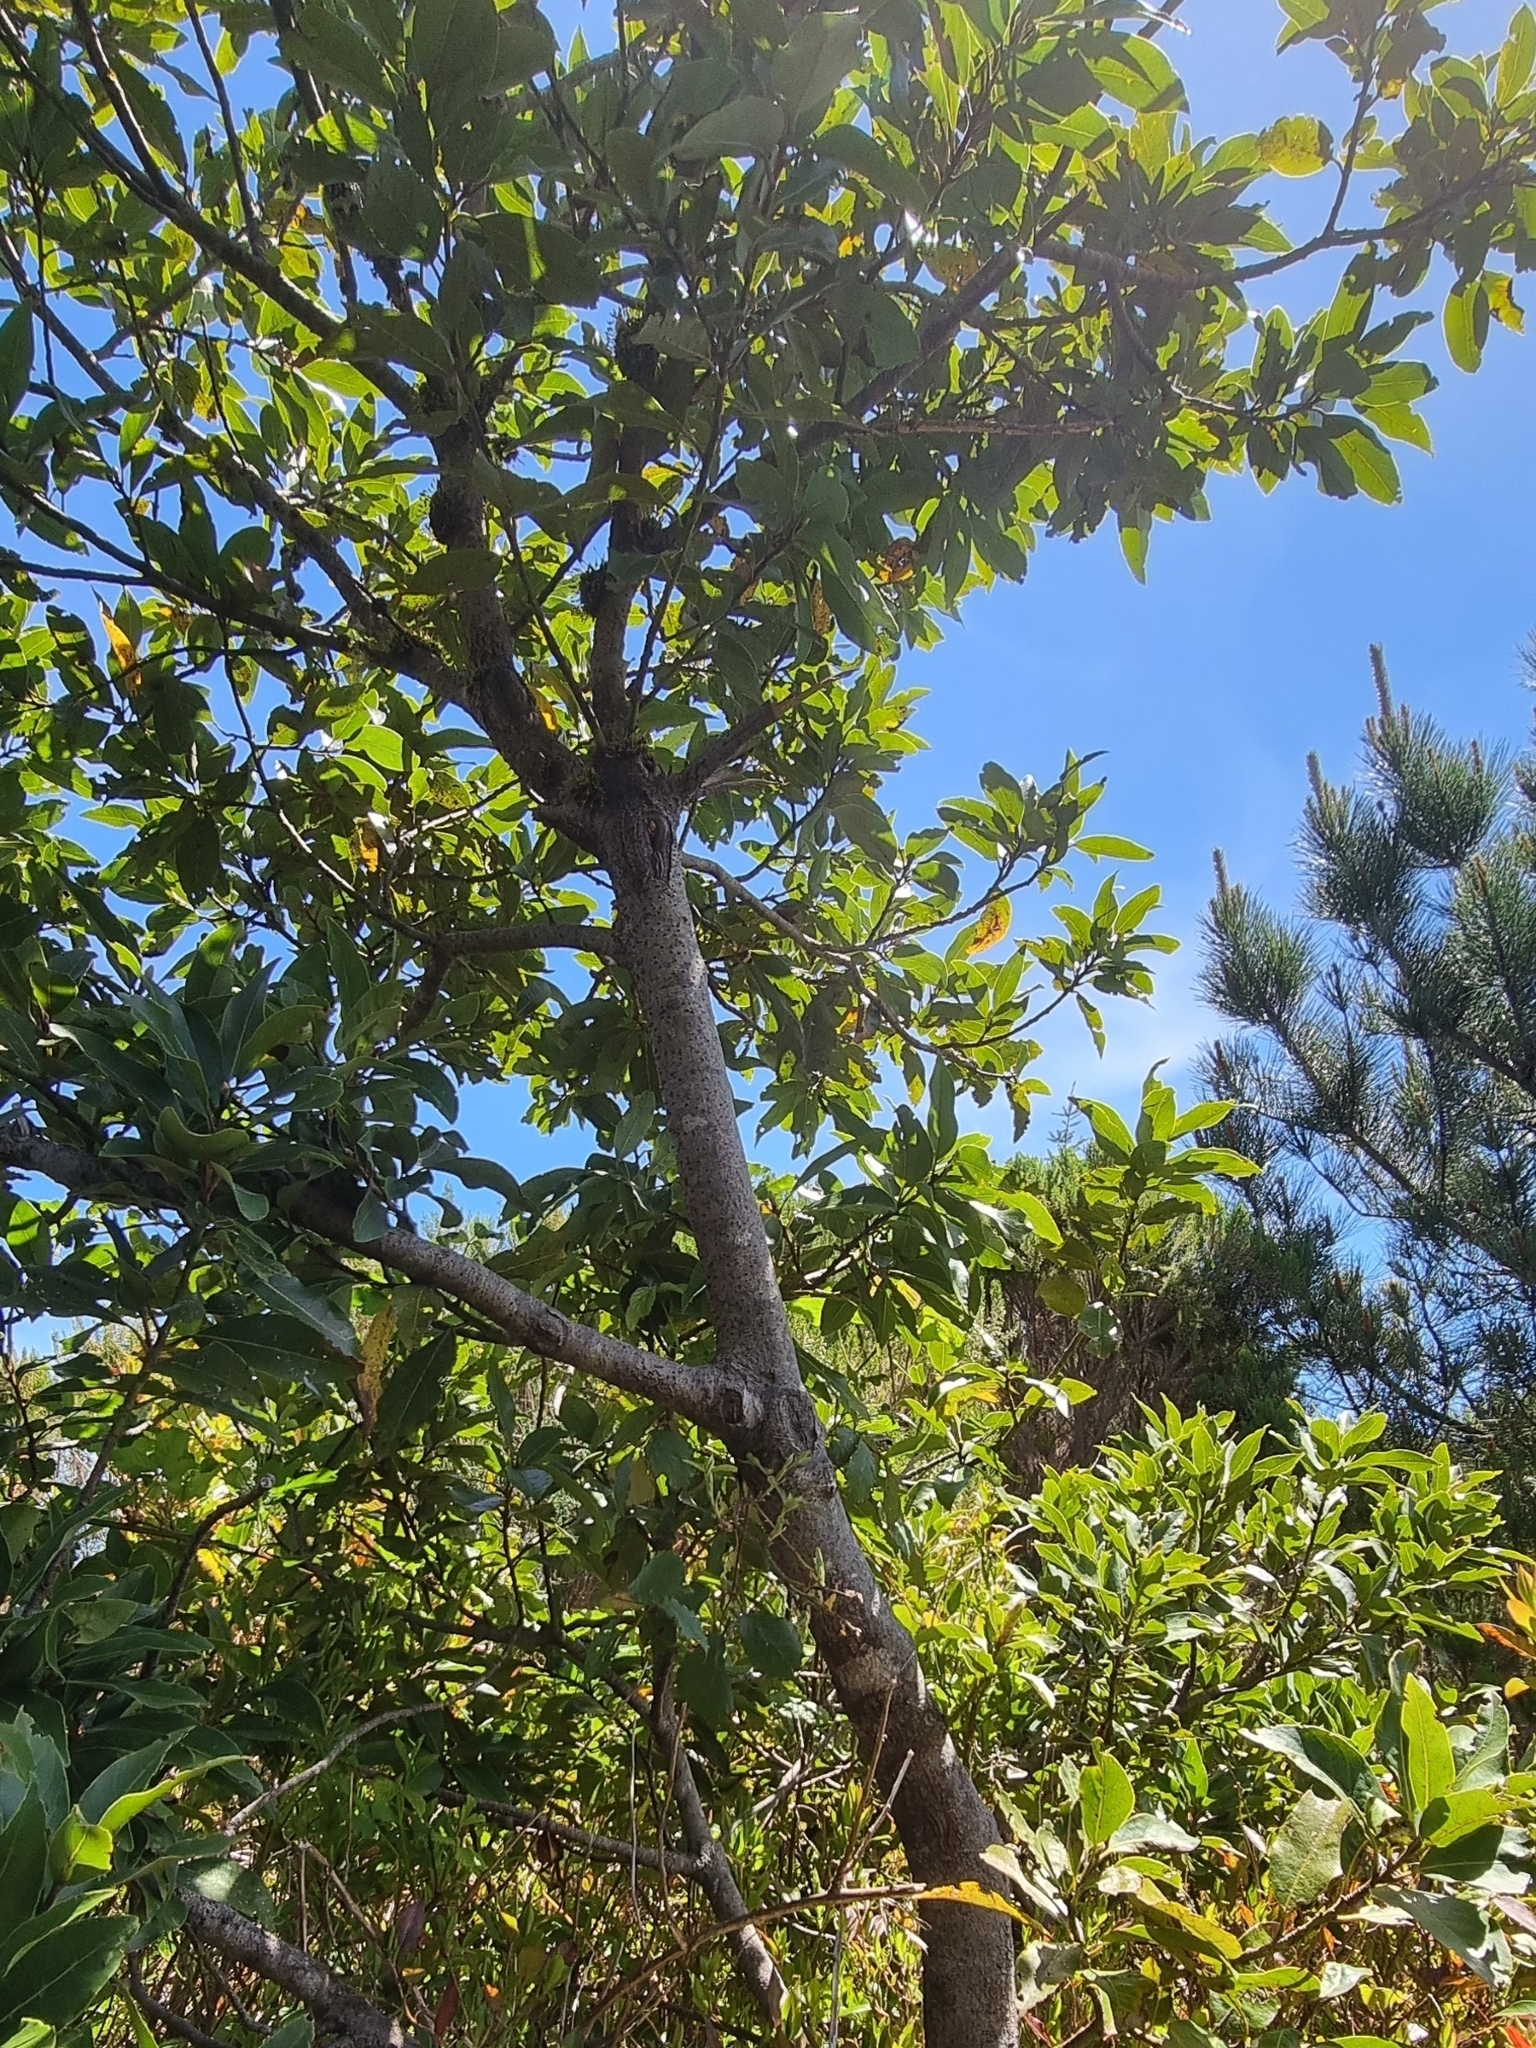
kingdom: Plantae
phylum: Tracheophyta
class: Magnoliopsida
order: Laurales
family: Lauraceae
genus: Laurus
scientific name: Laurus novocanariensis
